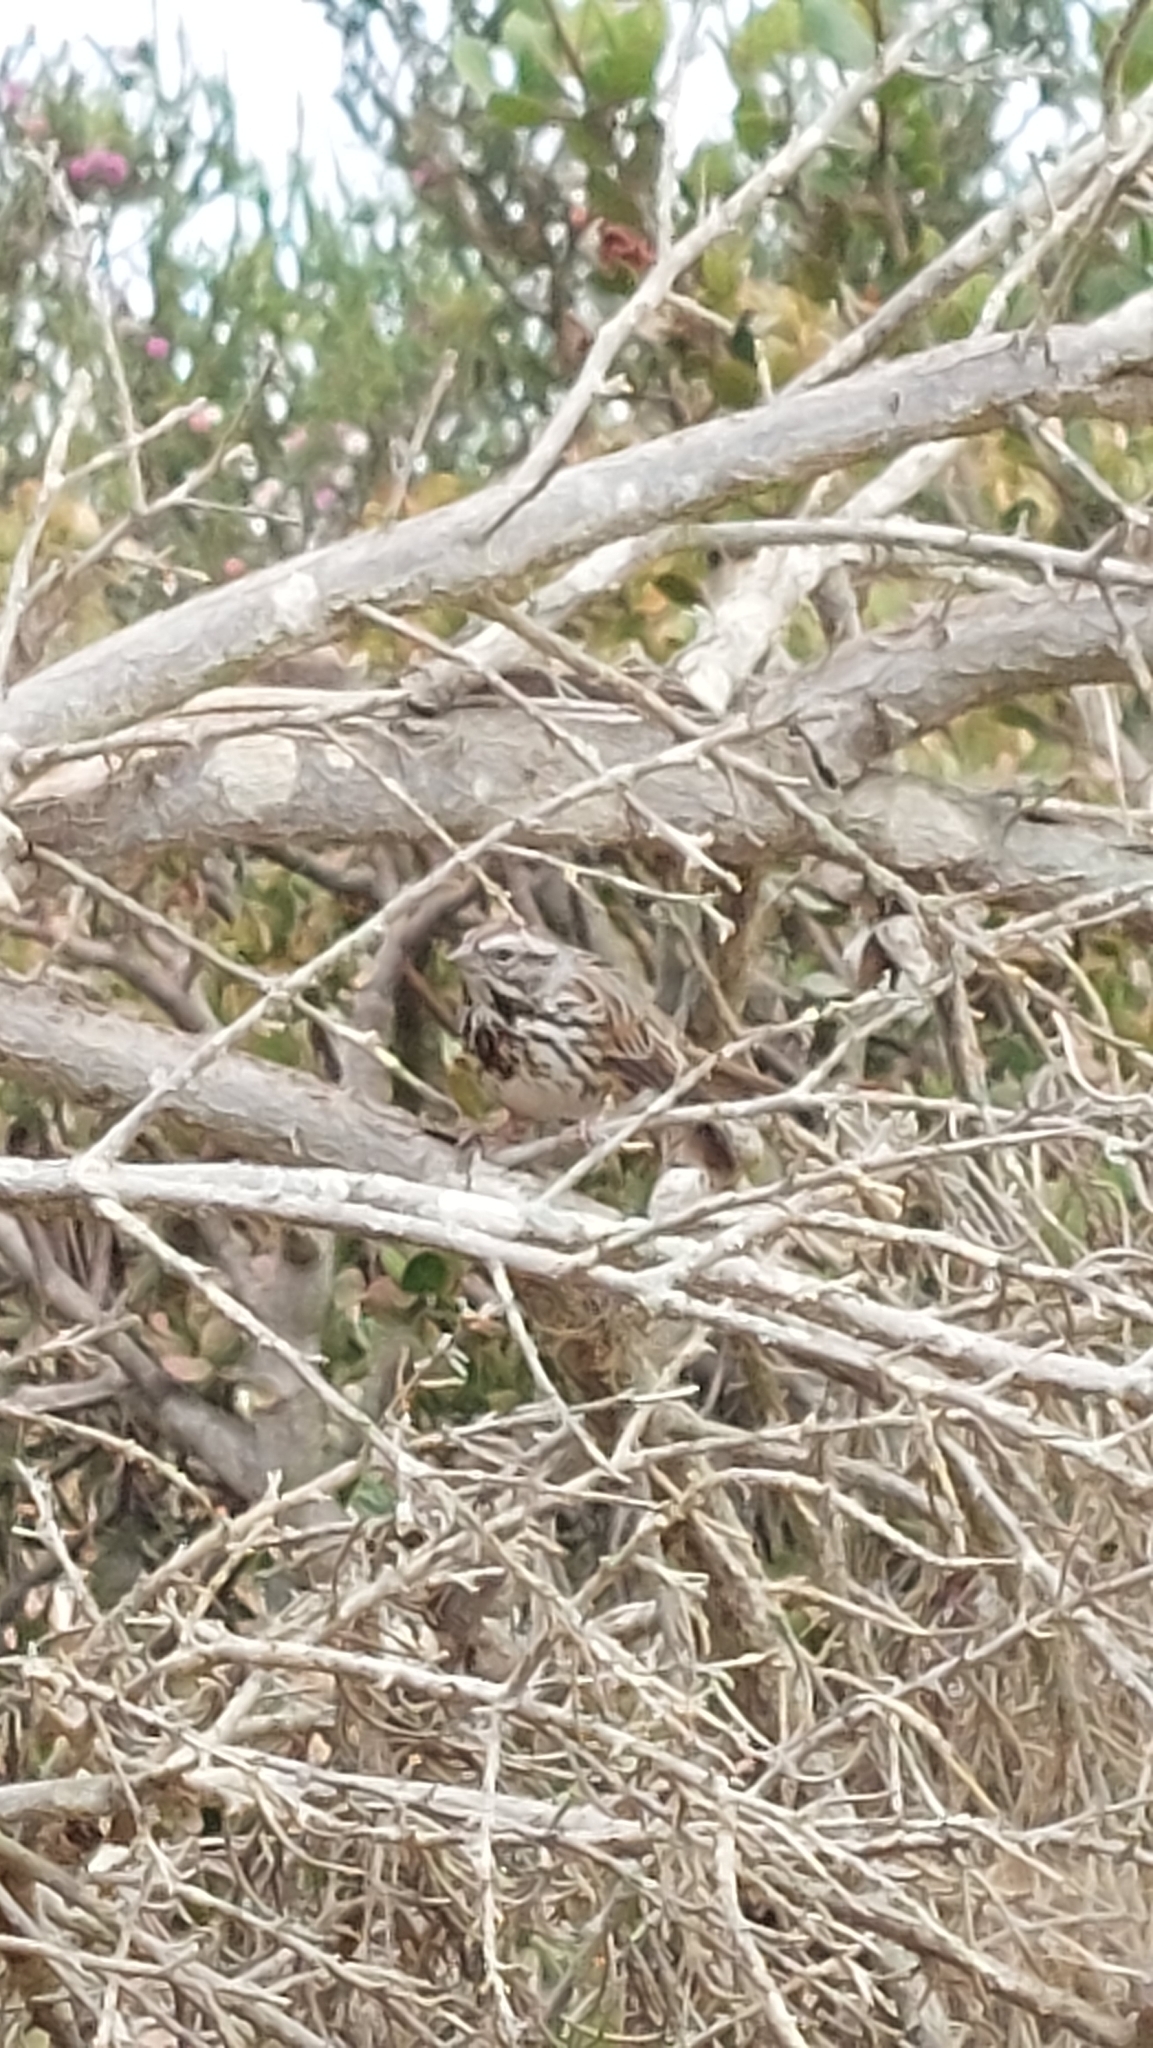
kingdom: Animalia
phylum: Chordata
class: Aves
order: Passeriformes
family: Passerellidae
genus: Melospiza
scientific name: Melospiza melodia
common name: Song sparrow
